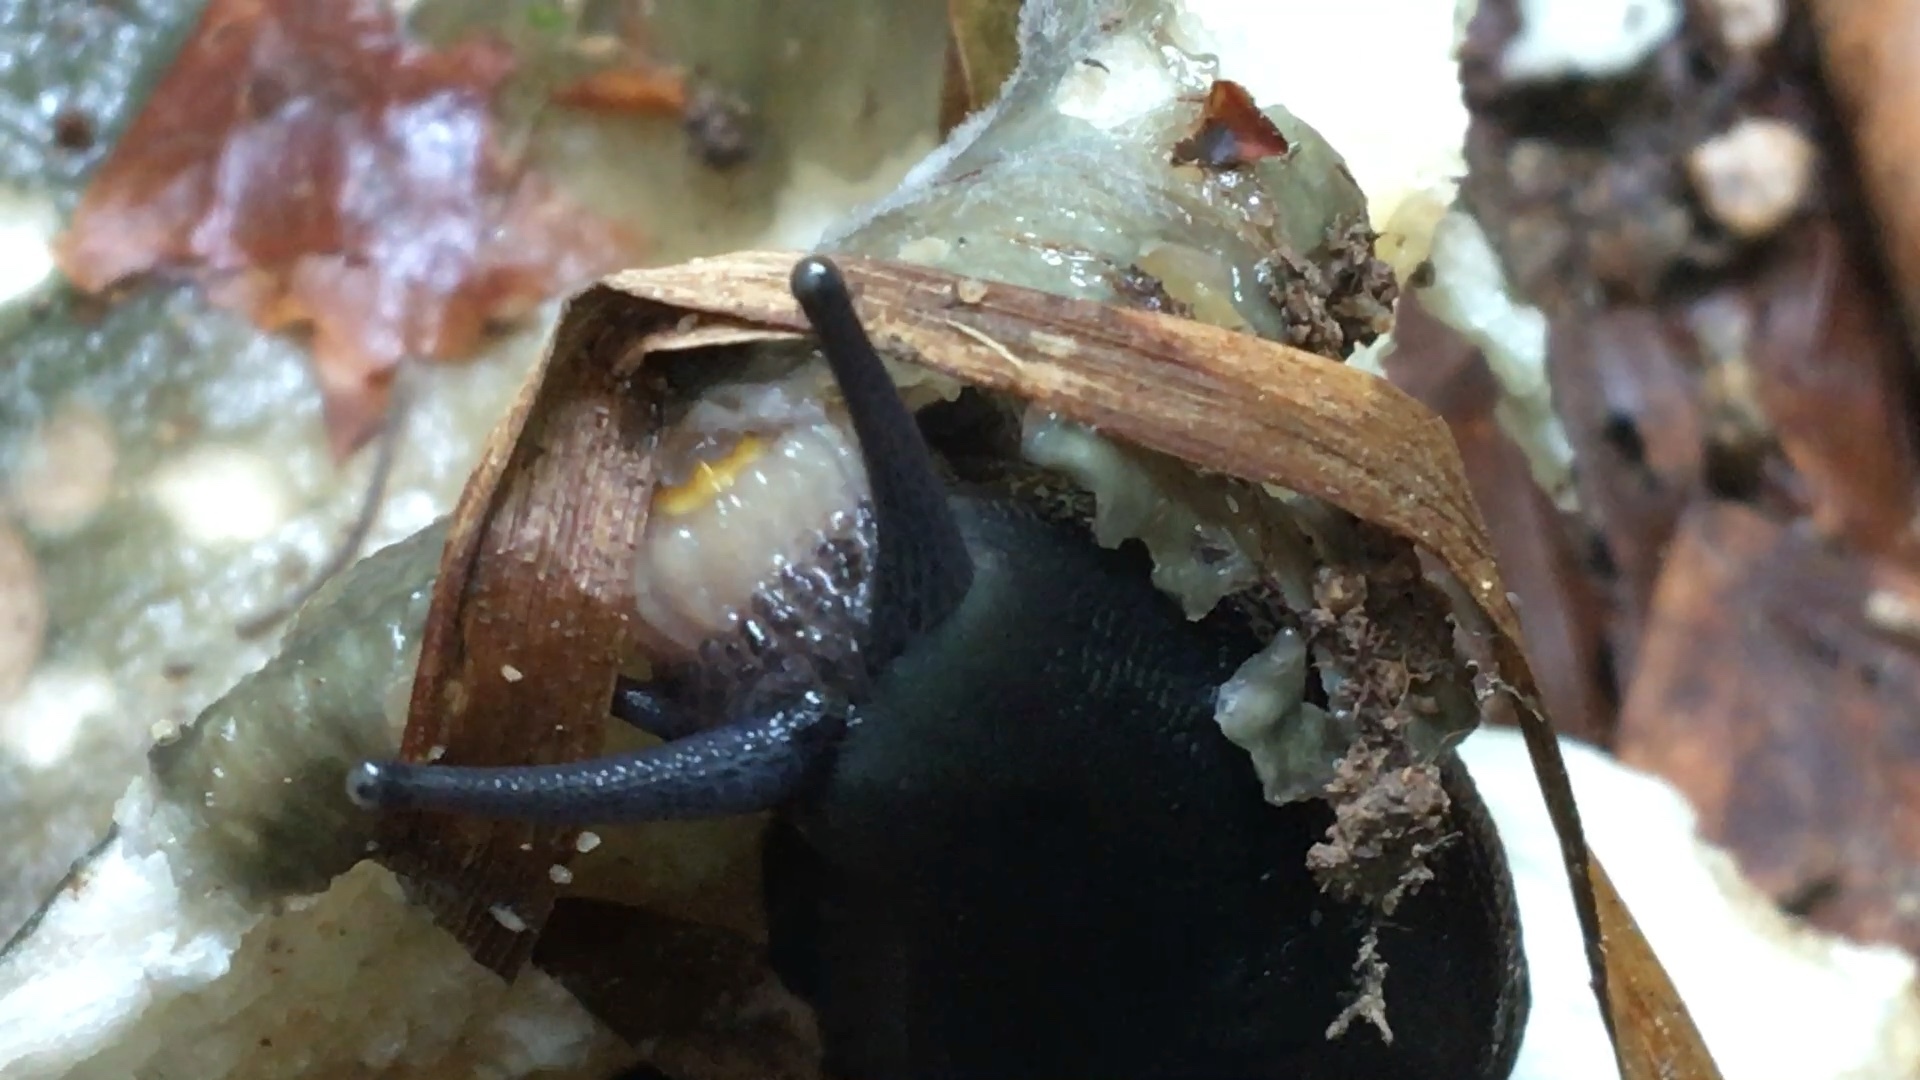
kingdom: Animalia
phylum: Mollusca
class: Gastropoda
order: Stylommatophora
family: Limacidae
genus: Limax
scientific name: Limax cinereoniger
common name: Ash-black slug
